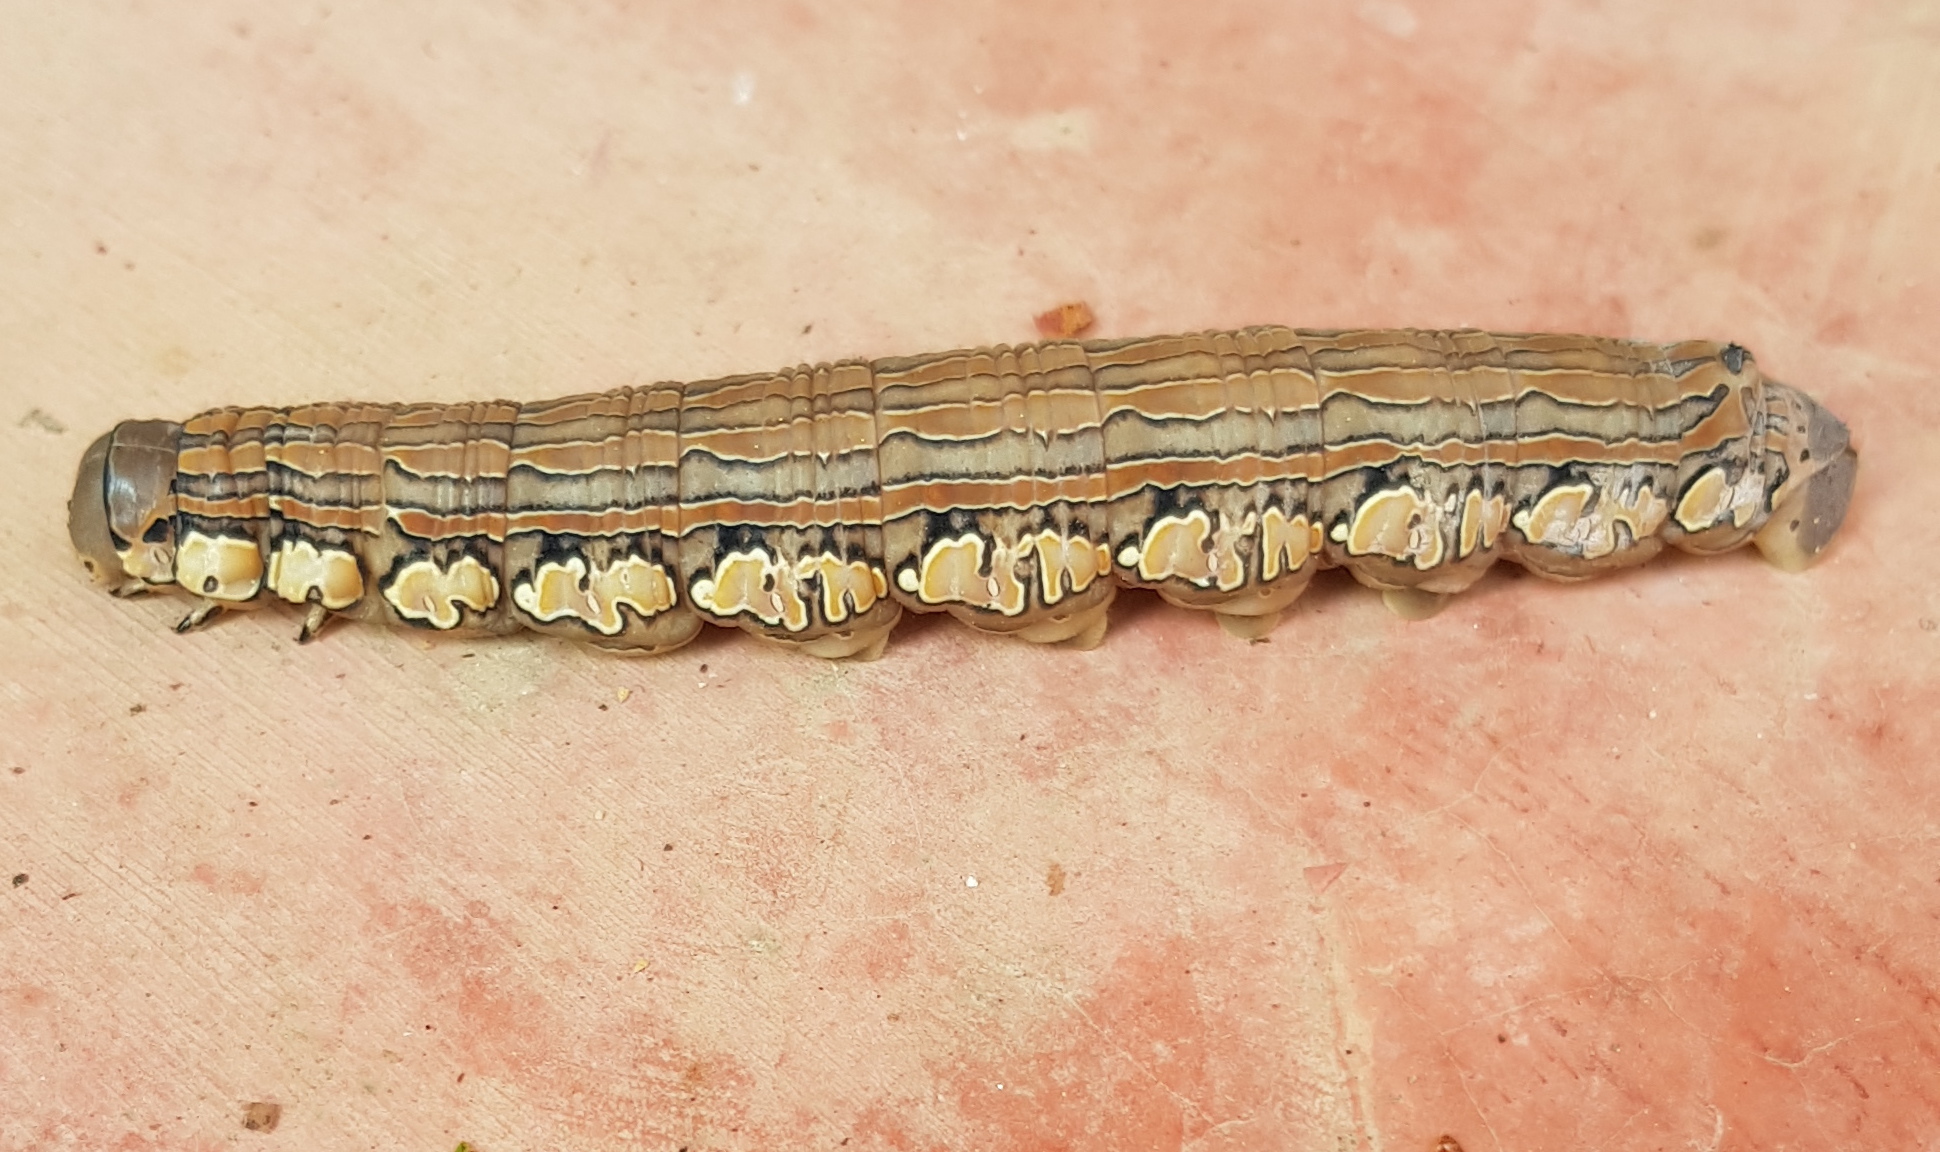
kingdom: Animalia
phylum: Arthropoda
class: Insecta
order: Lepidoptera
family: Sphingidae
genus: Isognathus
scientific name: Isognathus rimosa
